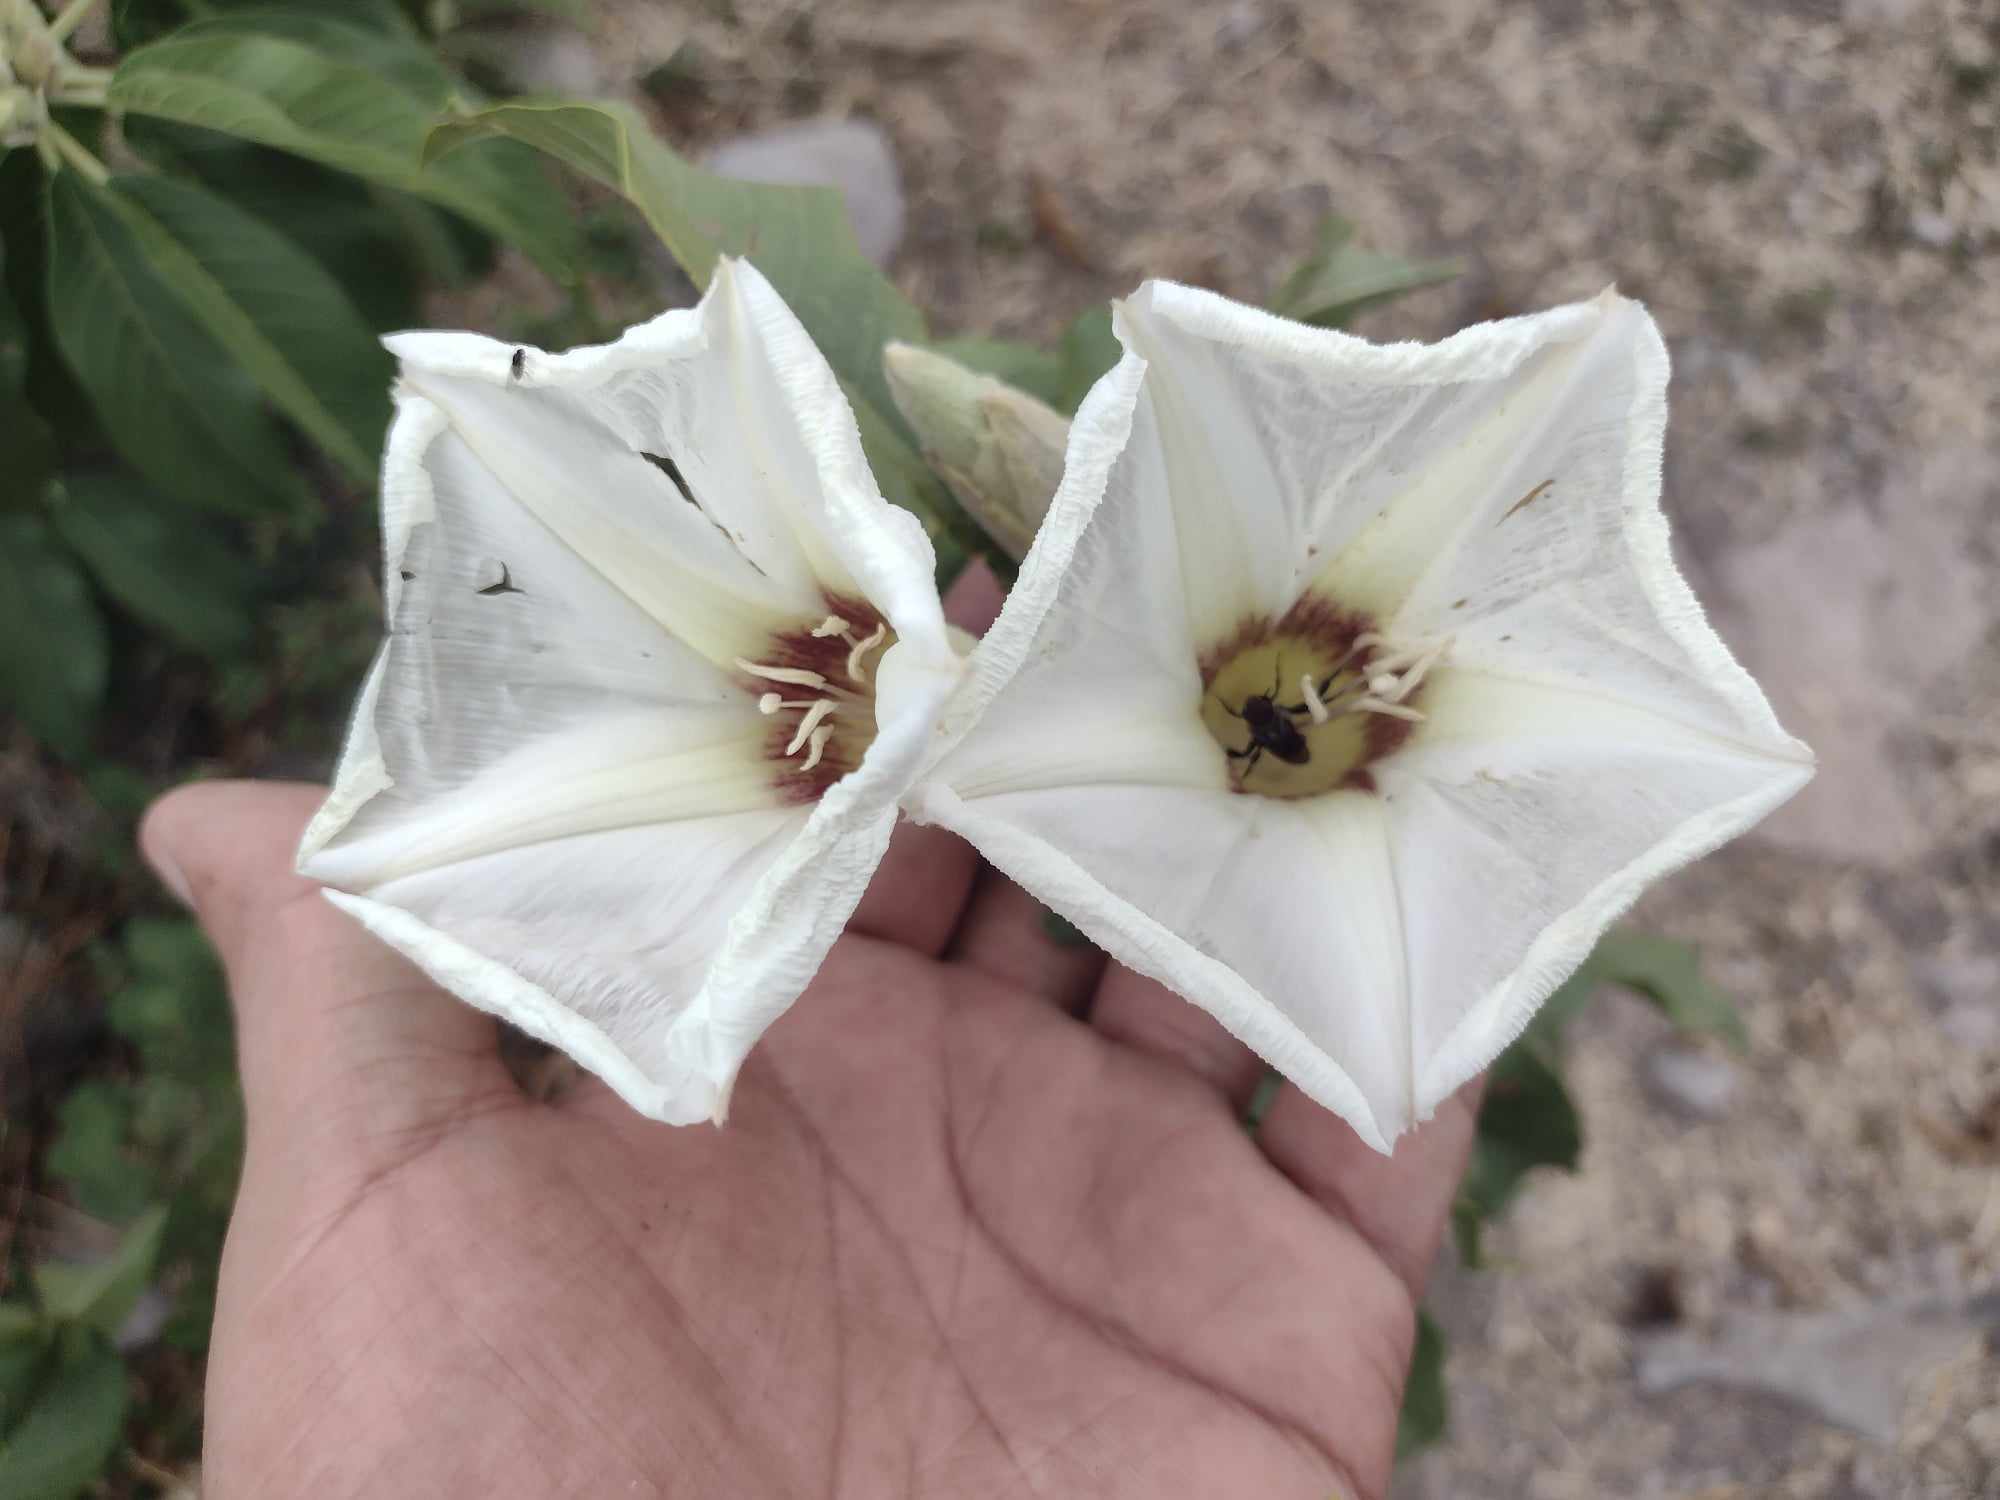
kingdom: Plantae
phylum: Tracheophyta
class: Magnoliopsida
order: Solanales
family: Convolvulaceae
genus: Ipomoea
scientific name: Ipomoea murucoides
